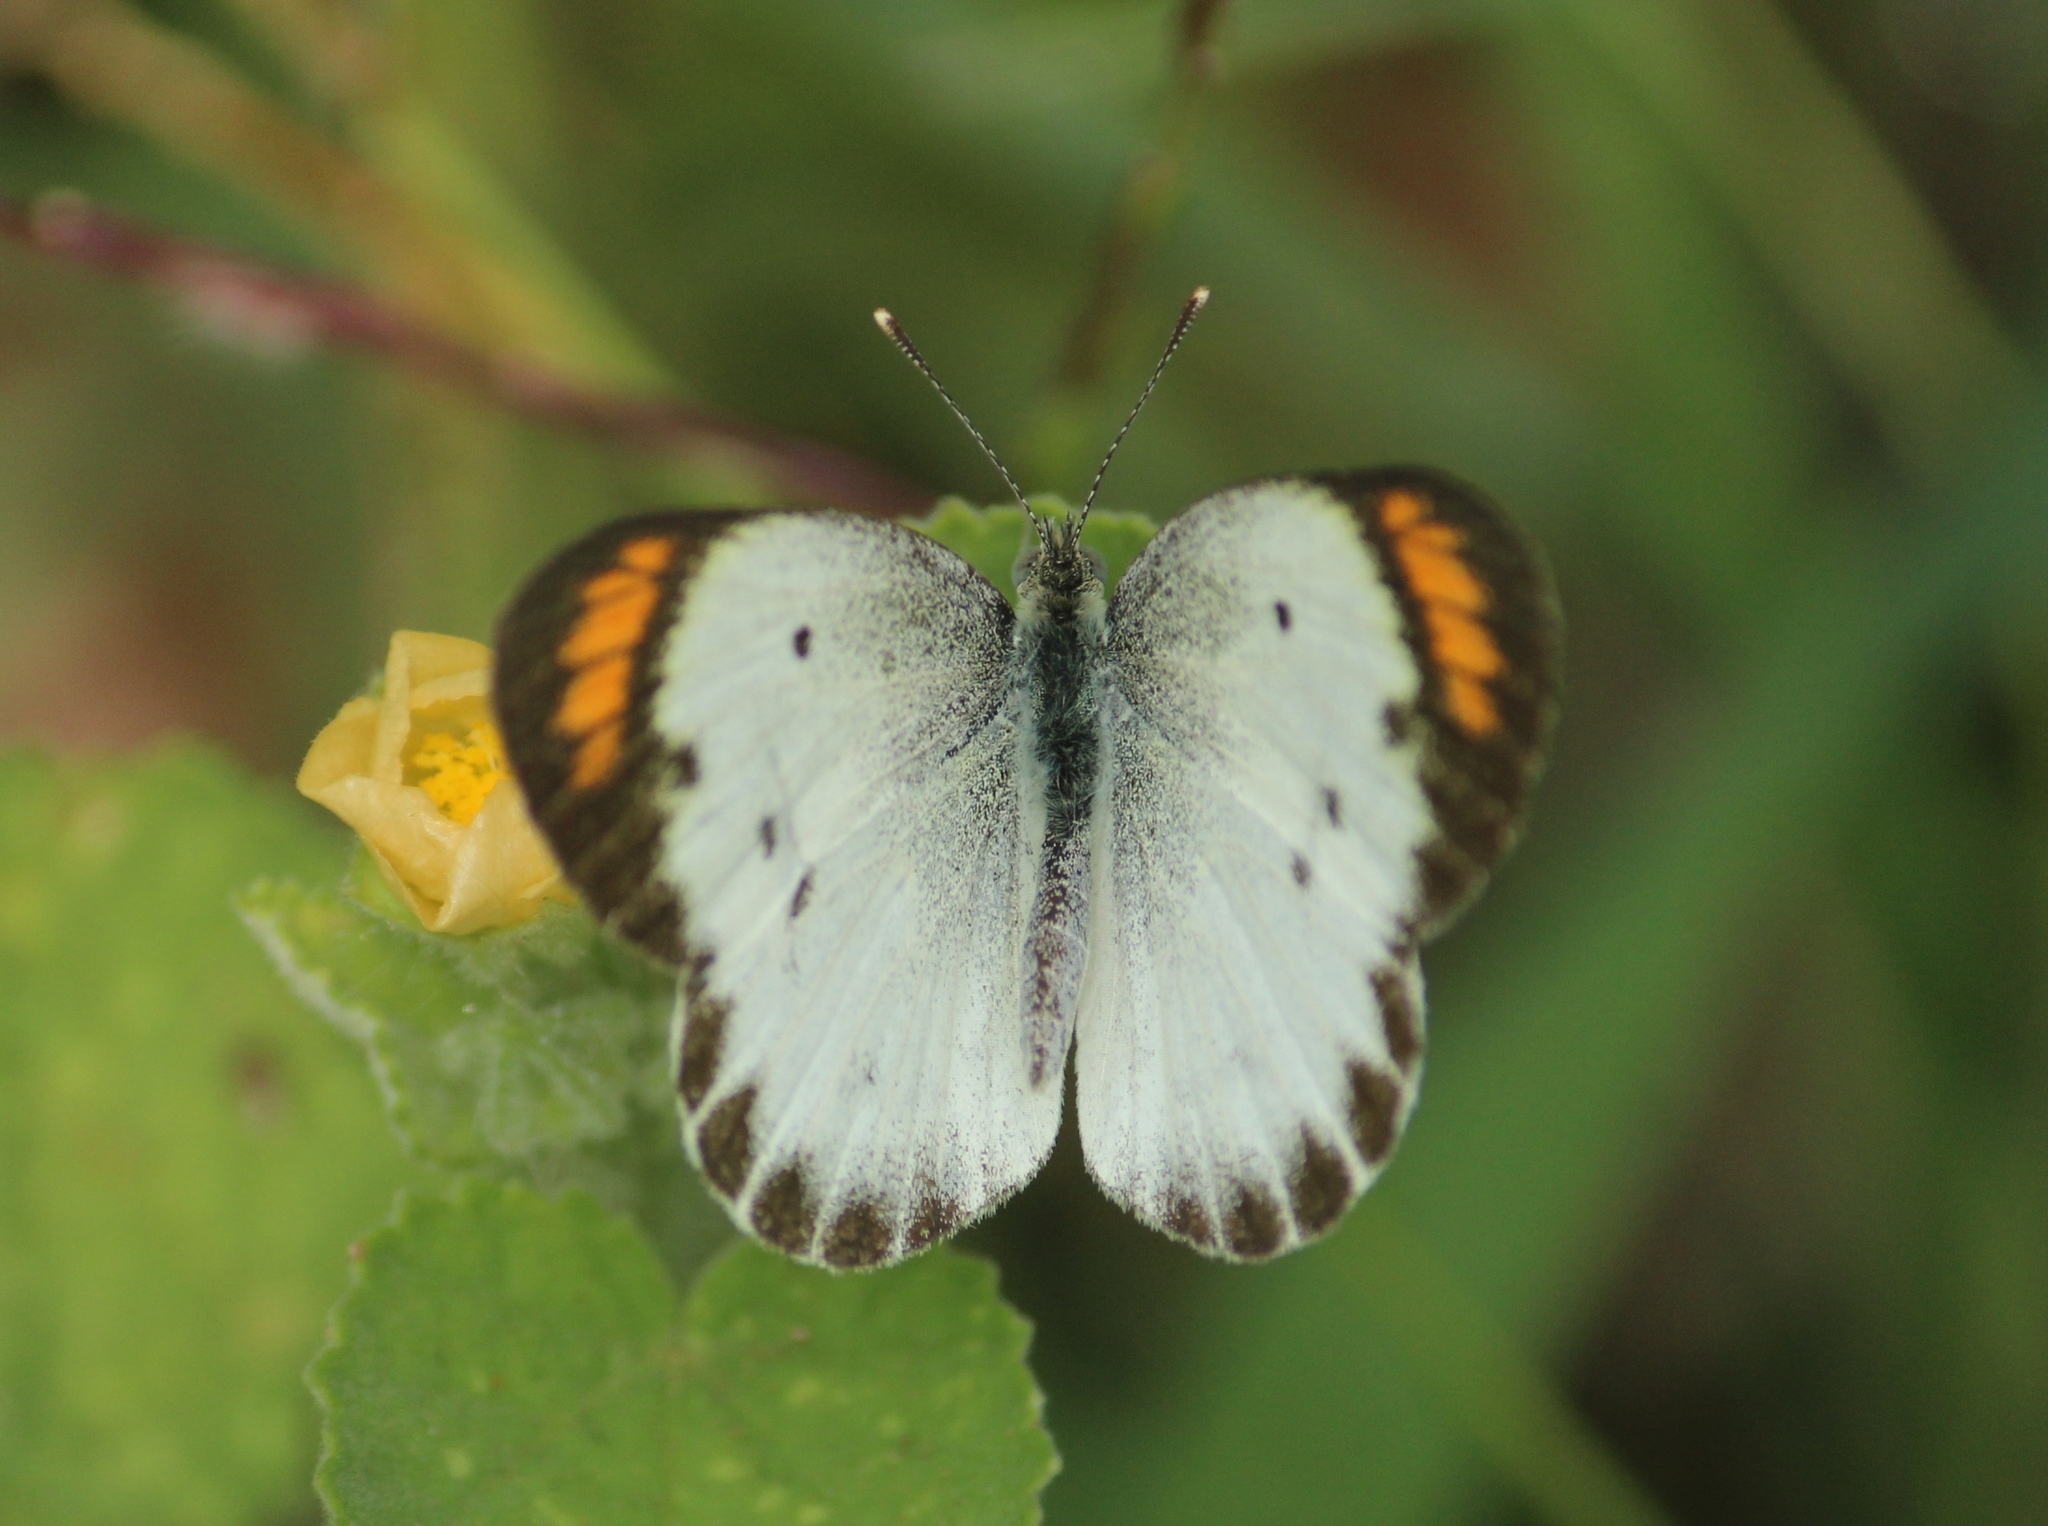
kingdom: Animalia
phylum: Arthropoda
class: Insecta
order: Lepidoptera
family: Pieridae
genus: Colotis
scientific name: Colotis etrida
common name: Little orange tip
